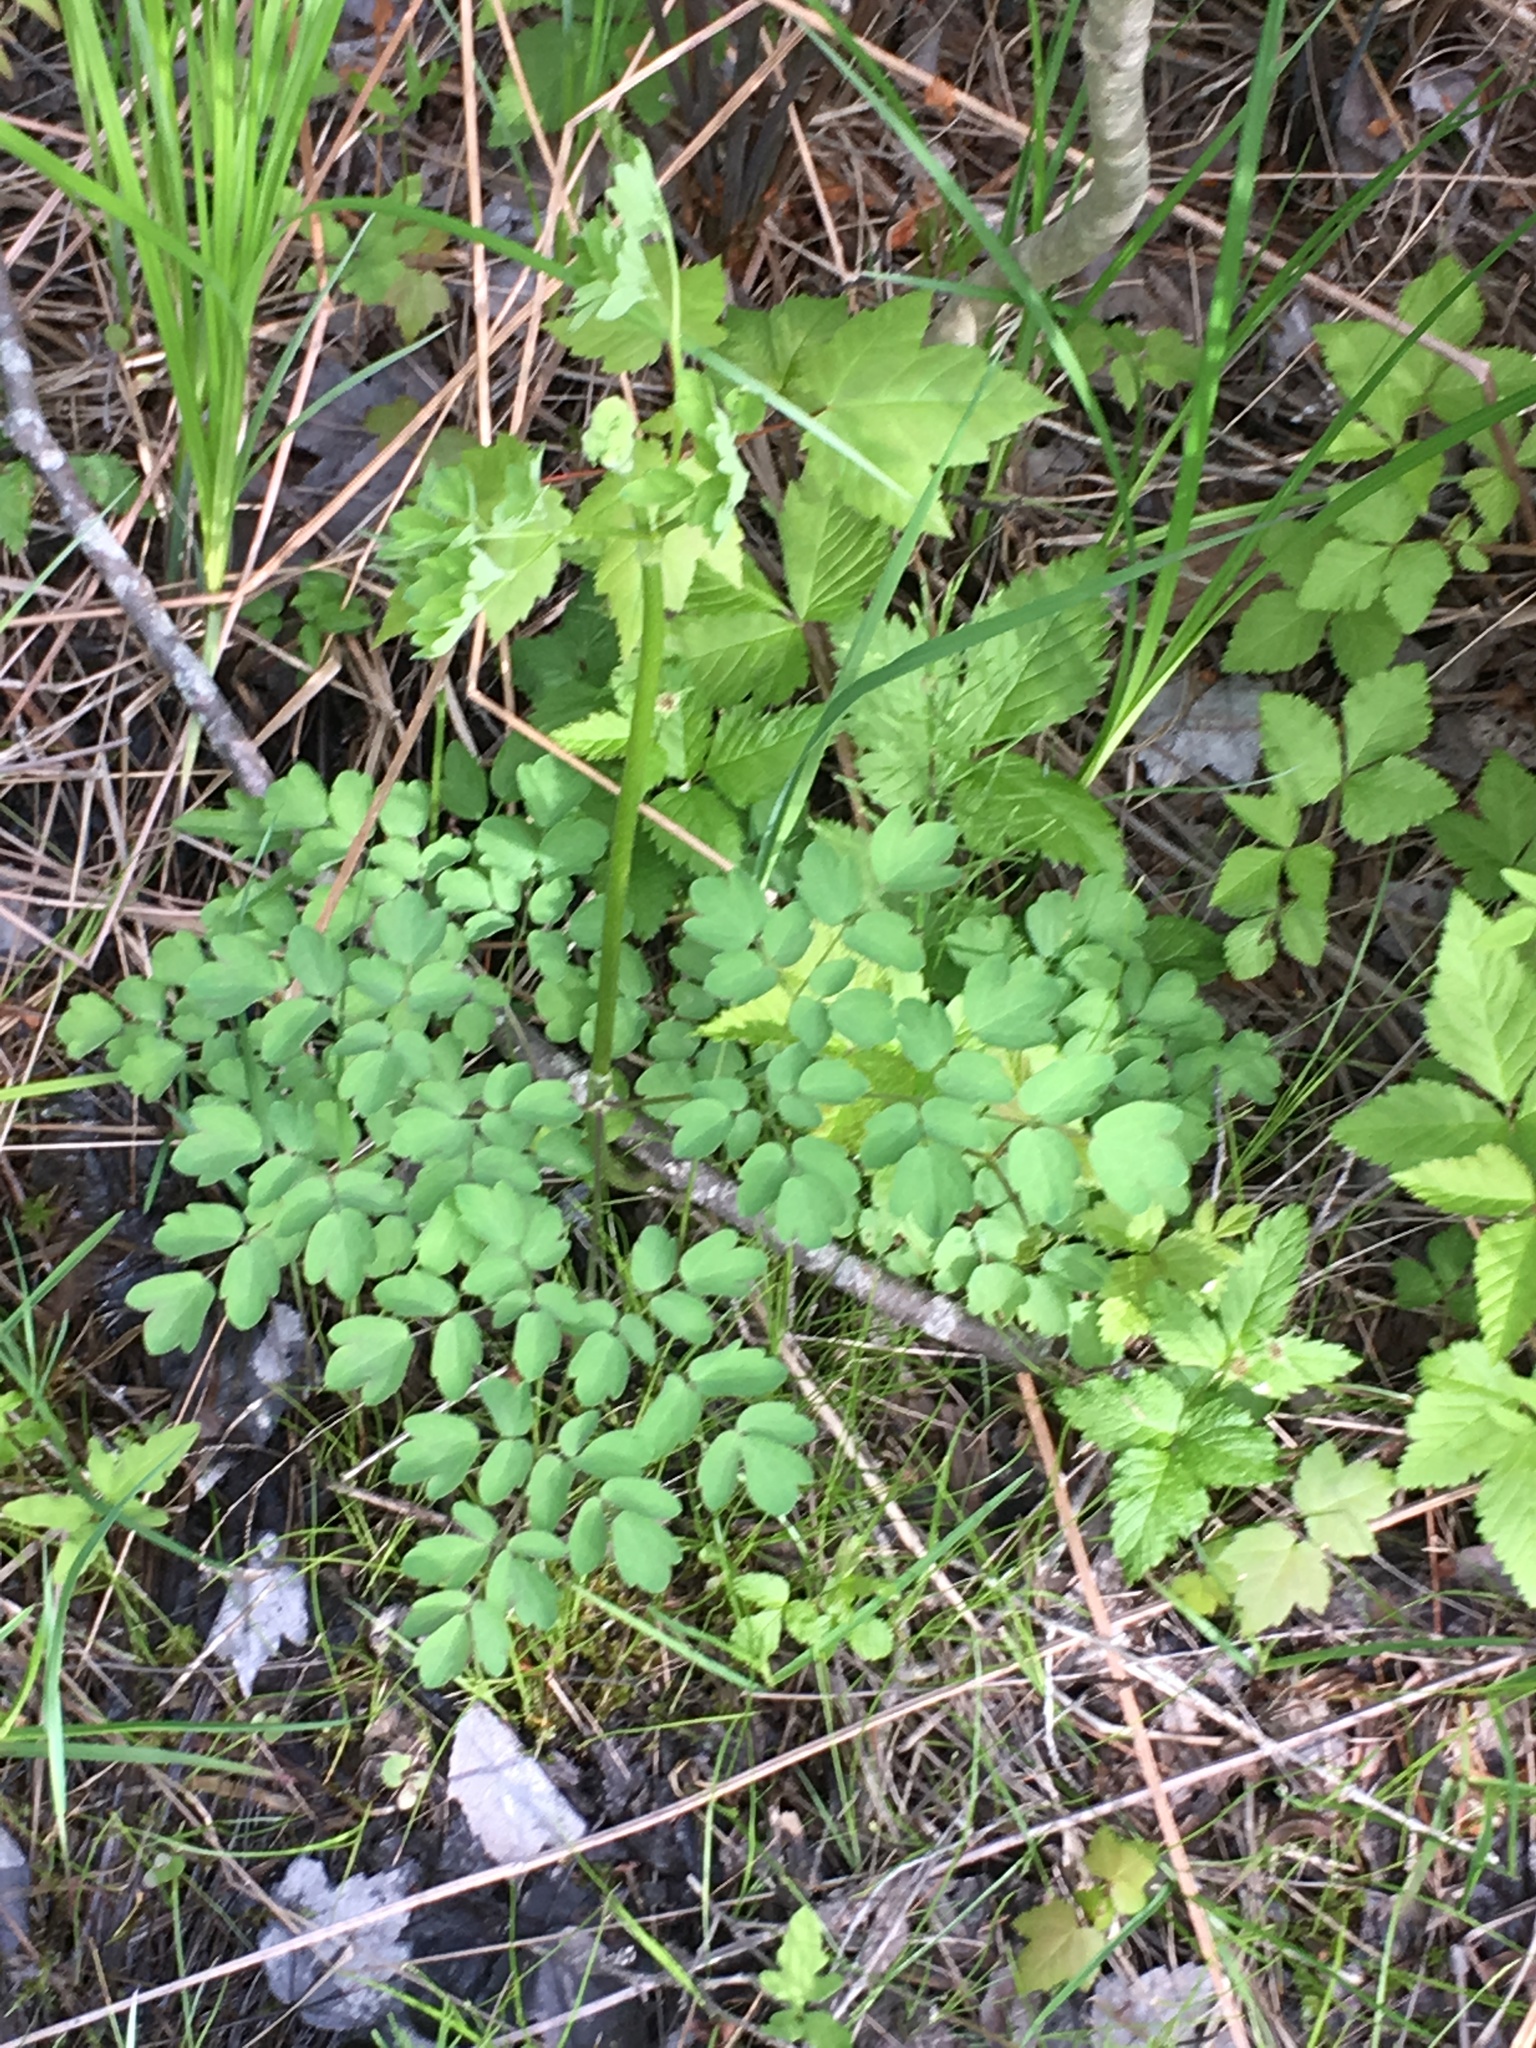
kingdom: Plantae
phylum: Tracheophyta
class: Magnoliopsida
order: Ranunculales
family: Ranunculaceae
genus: Thalictrum
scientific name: Thalictrum pubescens
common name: King-of-the-meadow
